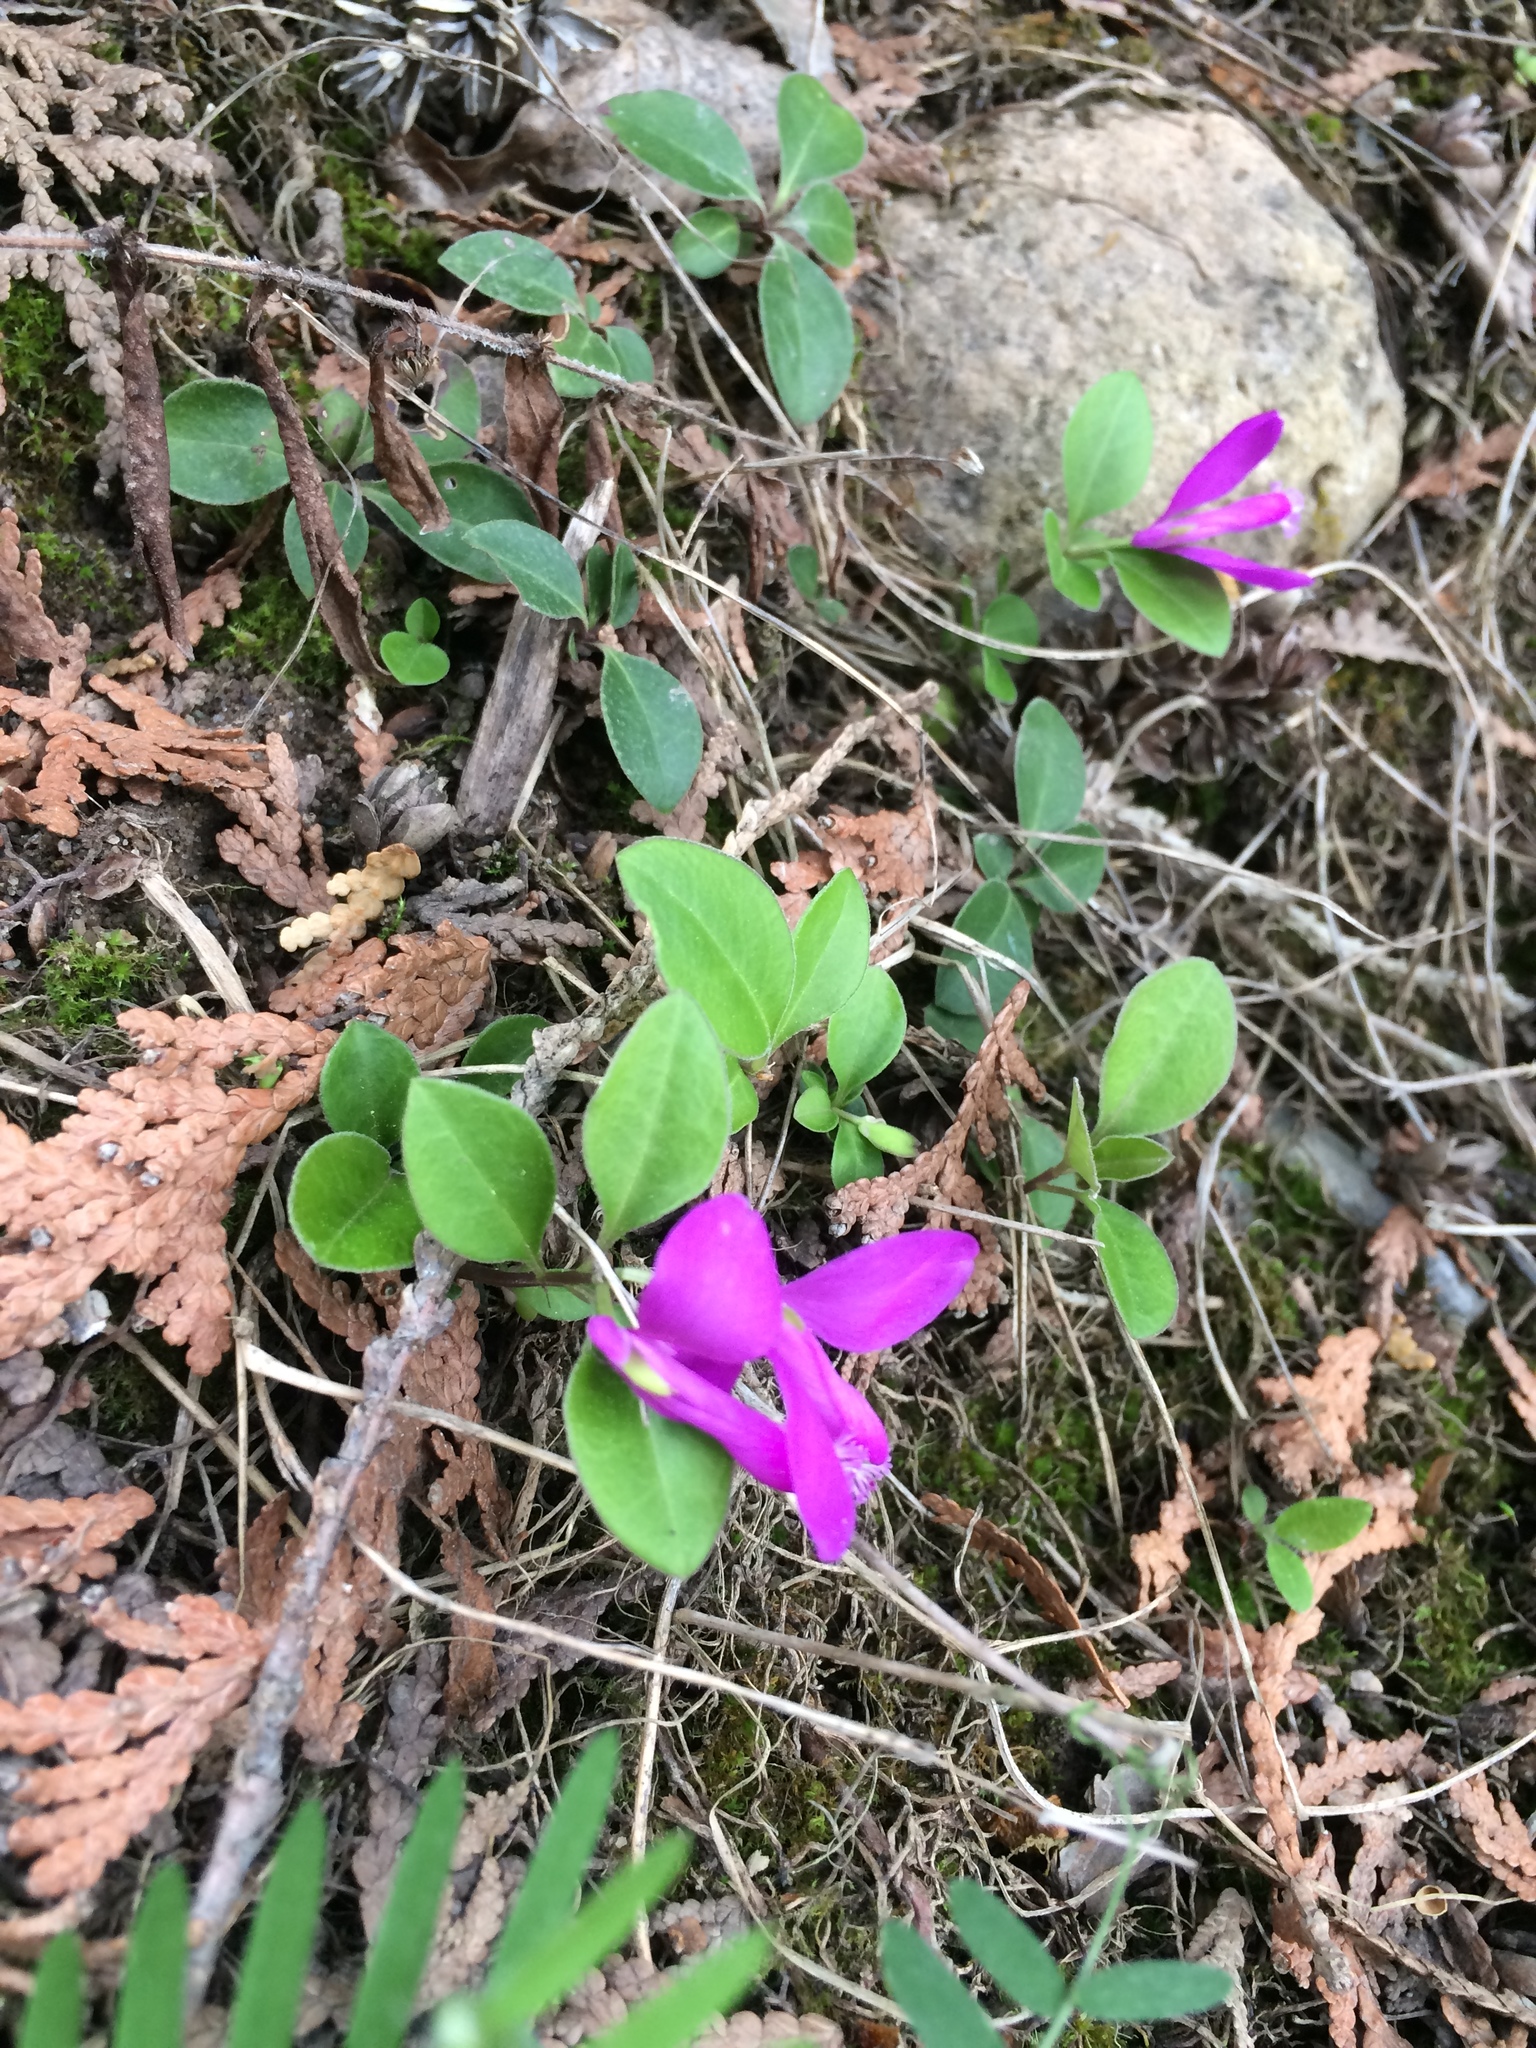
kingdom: Plantae
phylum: Tracheophyta
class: Magnoliopsida
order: Fabales
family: Polygalaceae
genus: Polygaloides
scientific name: Polygaloides paucifolia
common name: Bird-on-the-wing
